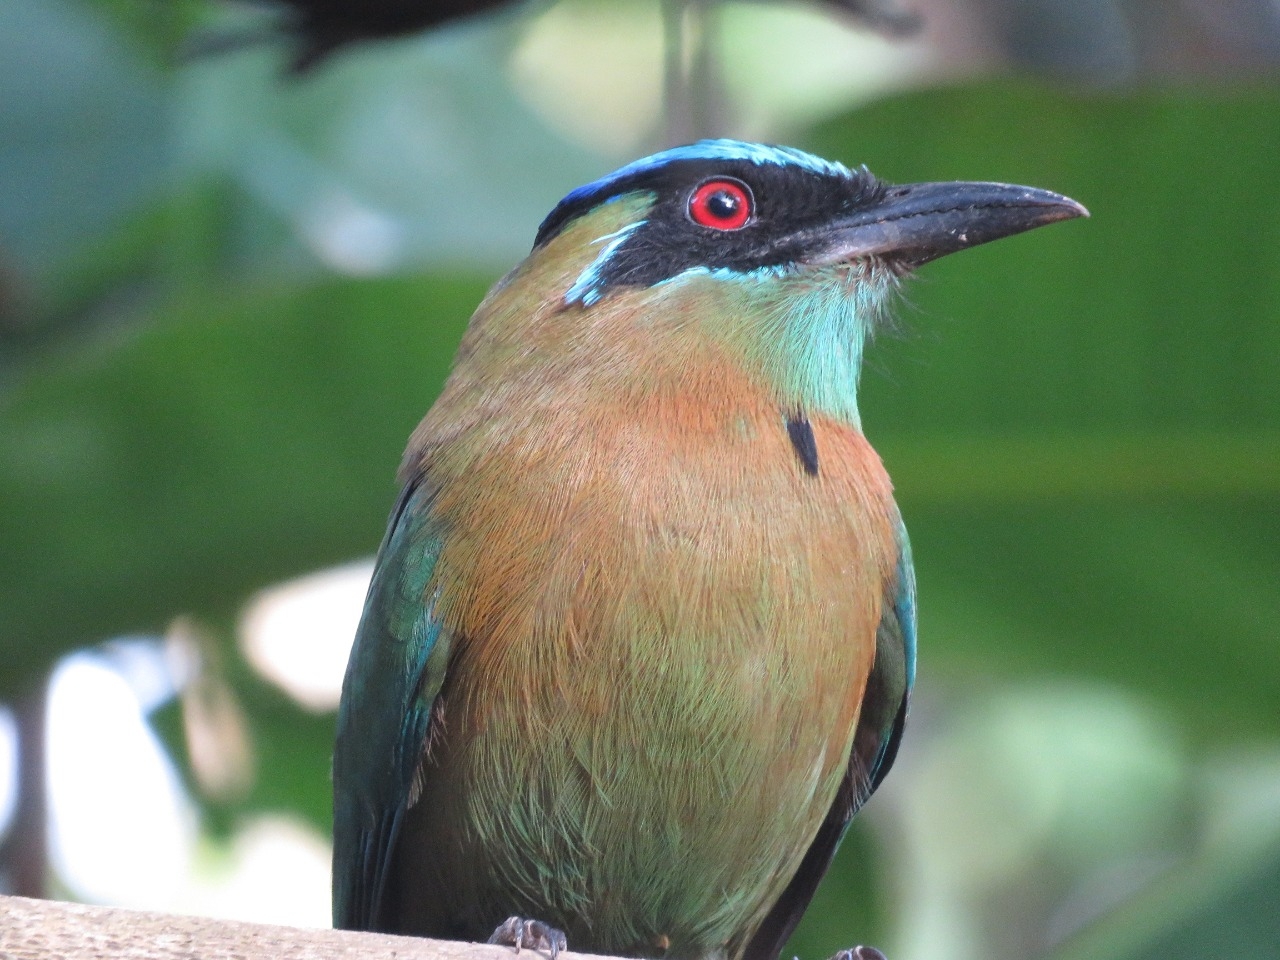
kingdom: Animalia
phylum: Chordata
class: Aves
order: Coraciiformes
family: Momotidae
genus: Momotus
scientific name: Momotus lessonii
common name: Lesson's motmot
